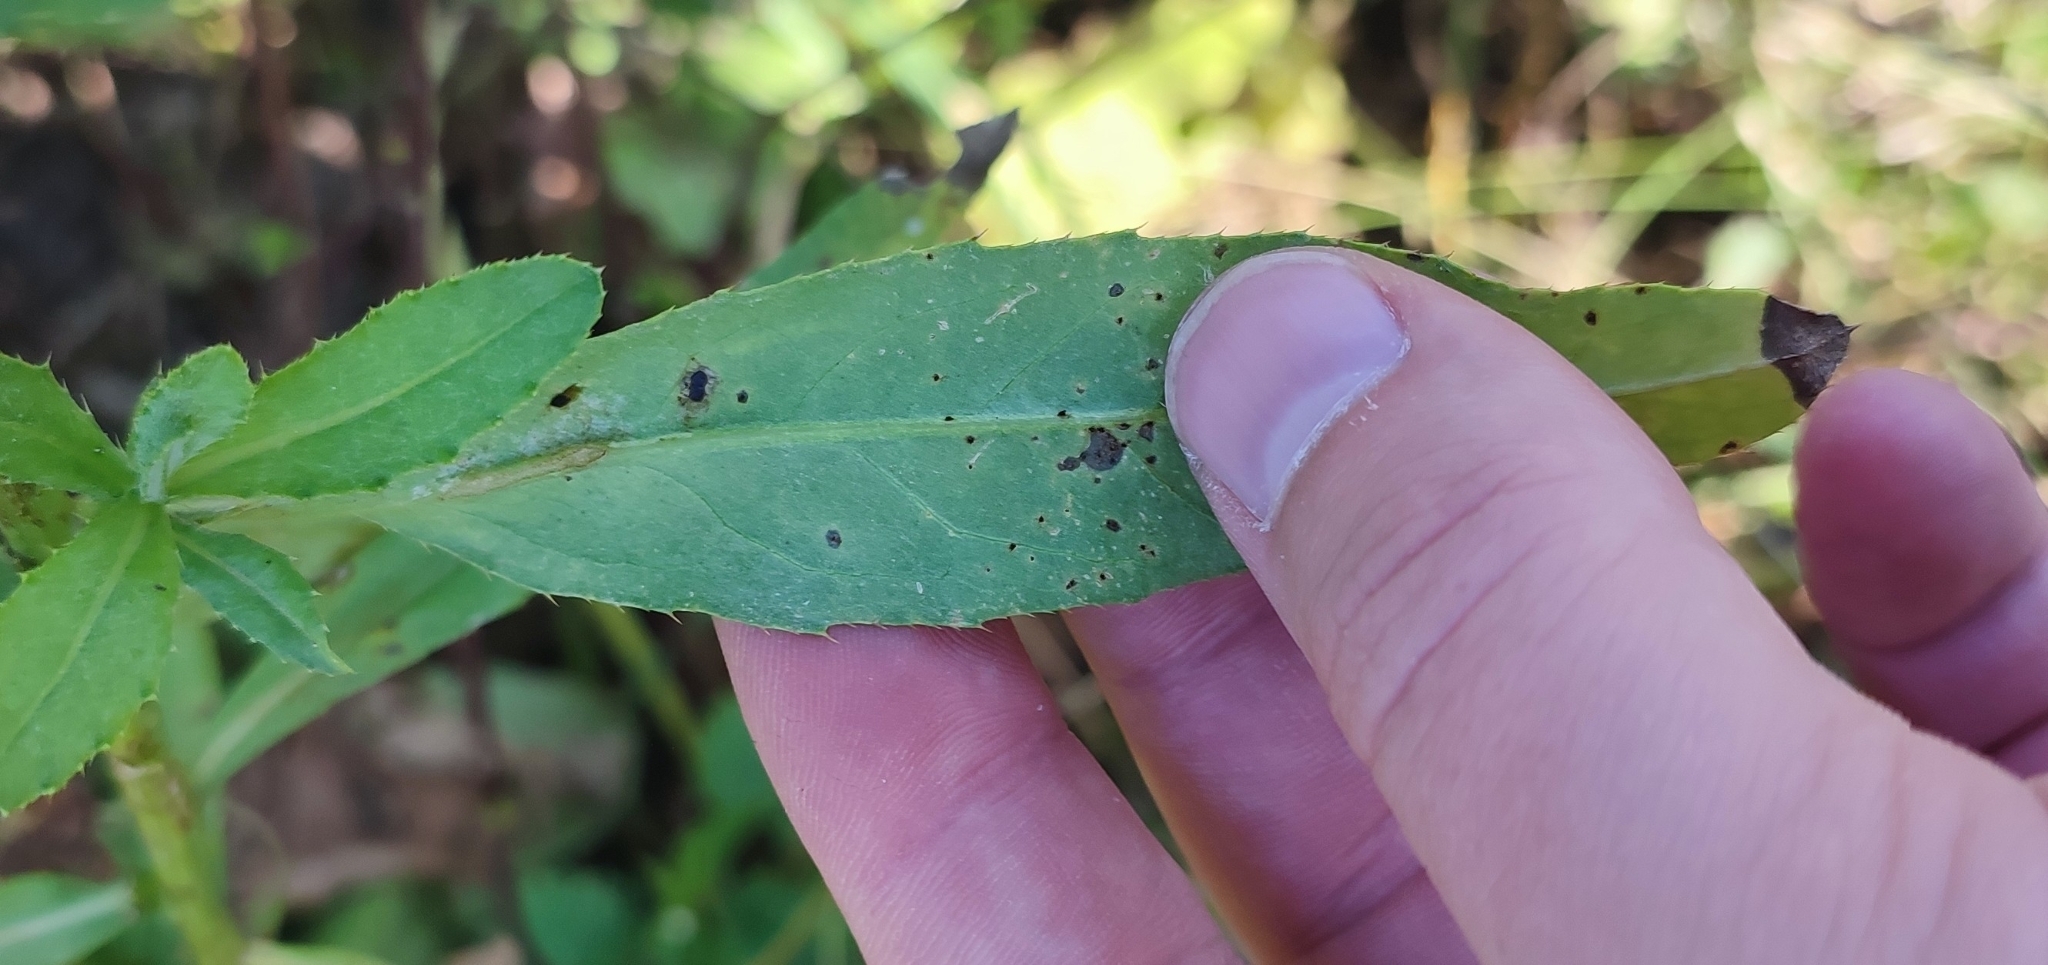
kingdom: Plantae
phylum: Tracheophyta
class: Magnoliopsida
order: Asterales
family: Asteraceae
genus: Cirsium
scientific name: Cirsium arvense
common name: Creeping thistle
